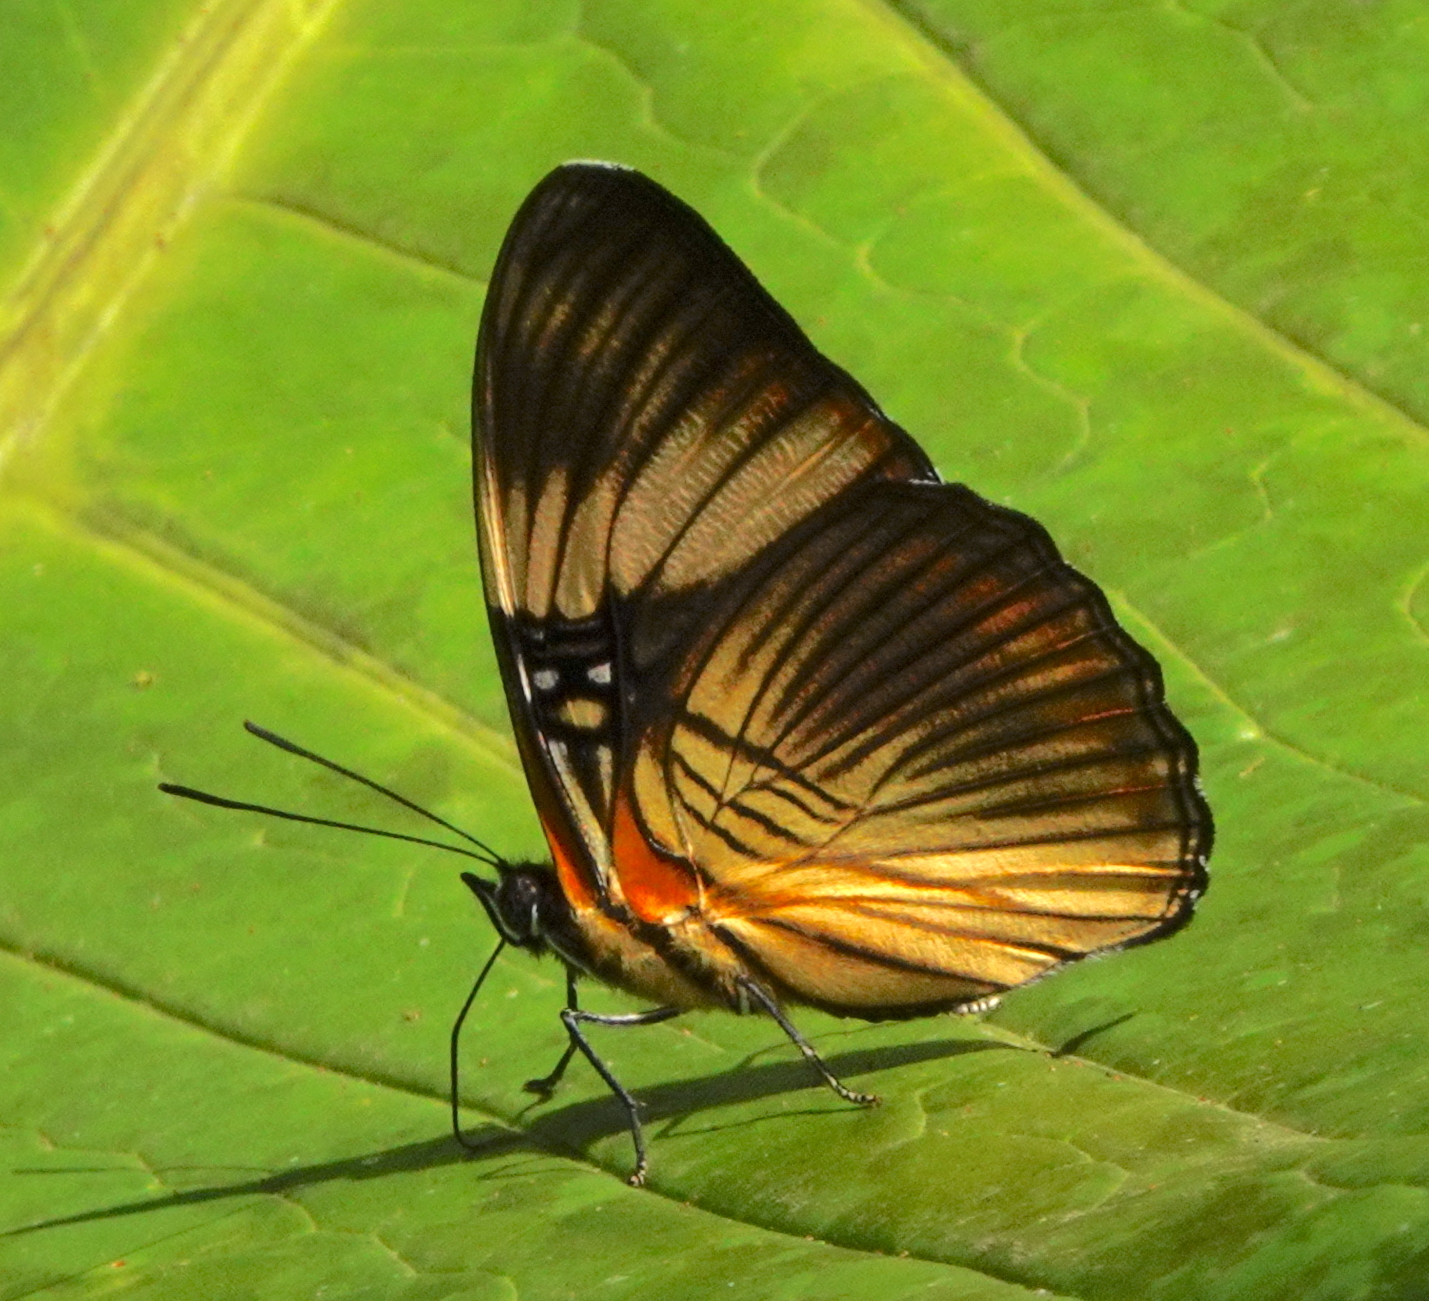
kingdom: Animalia
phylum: Arthropoda
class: Insecta
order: Lepidoptera
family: Nymphalidae
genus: Limenitis
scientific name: Limenitis isis
